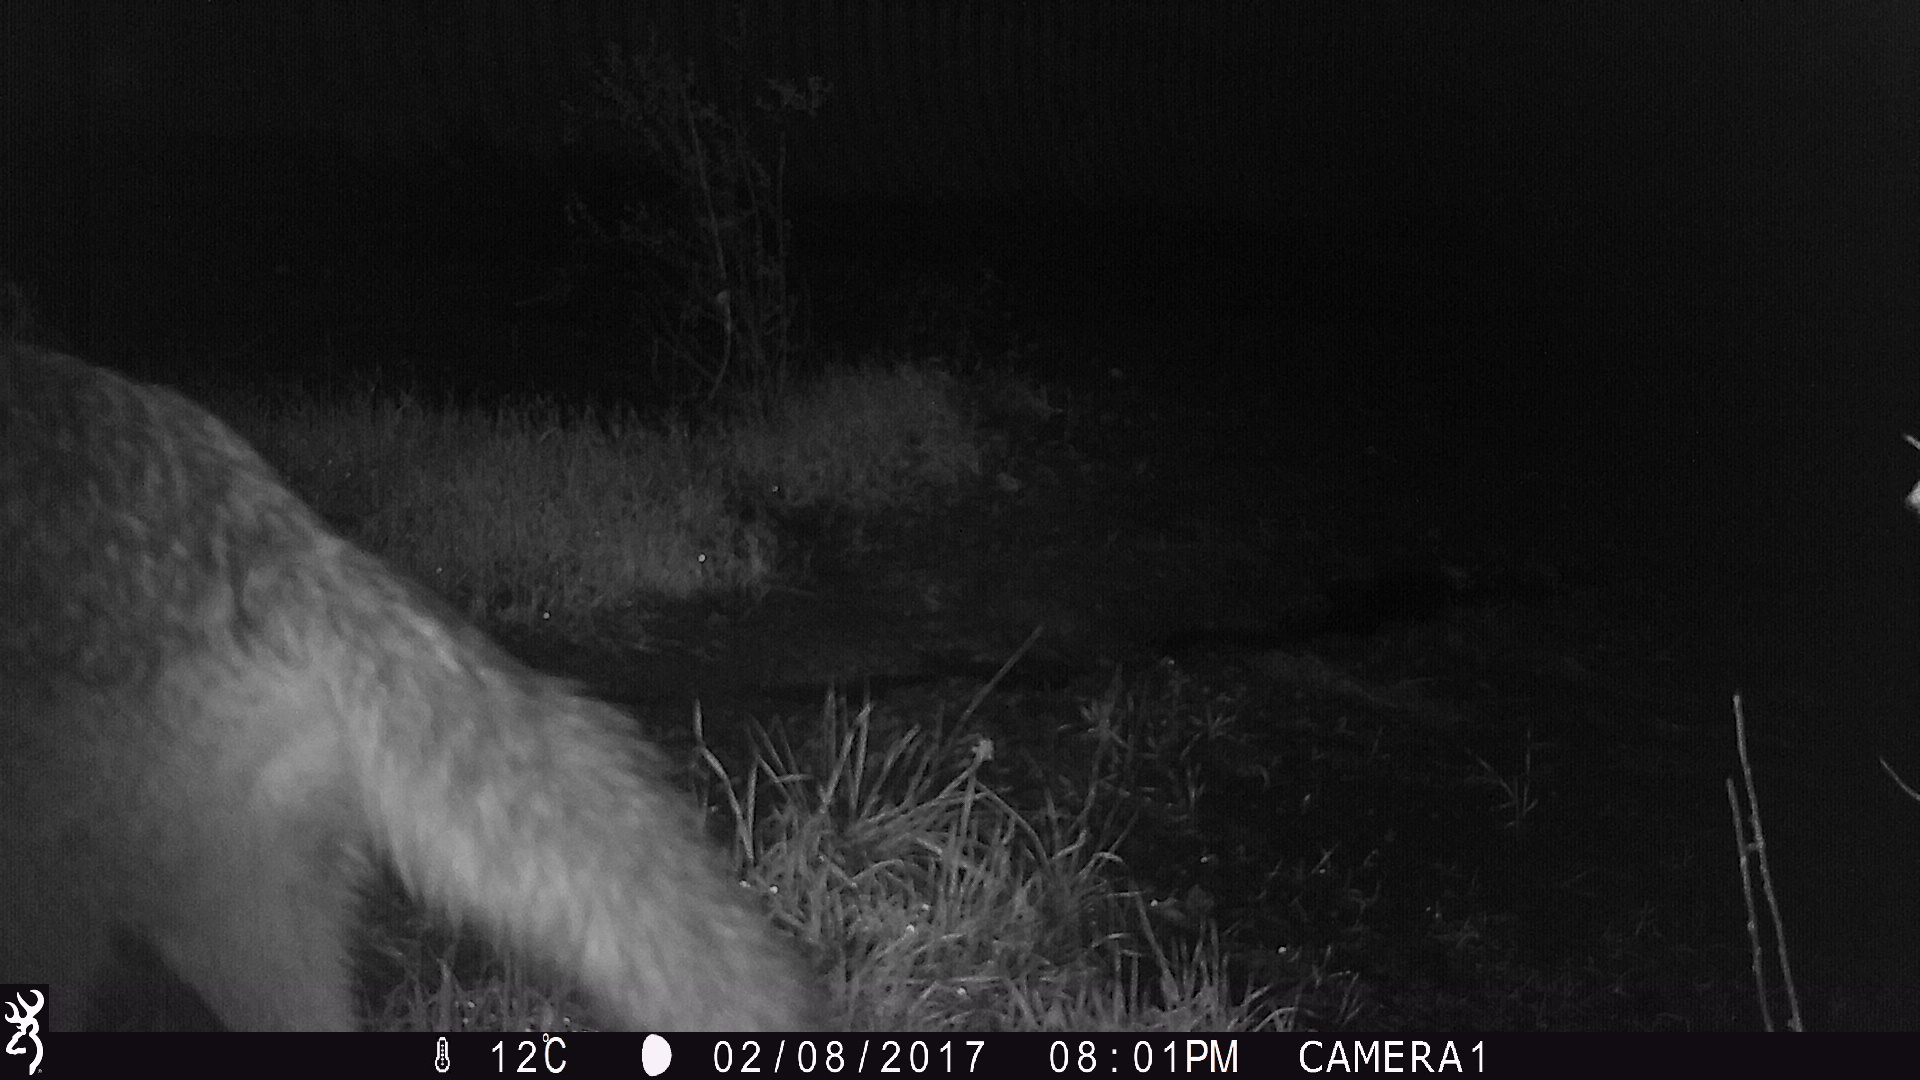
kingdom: Animalia
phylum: Chordata
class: Mammalia
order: Carnivora
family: Canidae
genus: Canis
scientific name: Canis latrans
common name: Coyote
